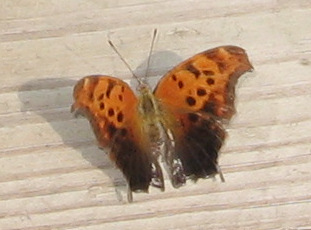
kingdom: Animalia
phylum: Arthropoda
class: Insecta
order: Lepidoptera
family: Nymphalidae
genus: Polygonia
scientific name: Polygonia interrogationis
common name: Question mark
